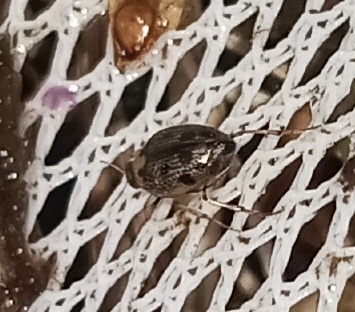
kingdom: Animalia
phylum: Arthropoda
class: Insecta
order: Coleoptera
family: Haliplidae
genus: Peltodytes
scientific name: Peltodytes edentulus
